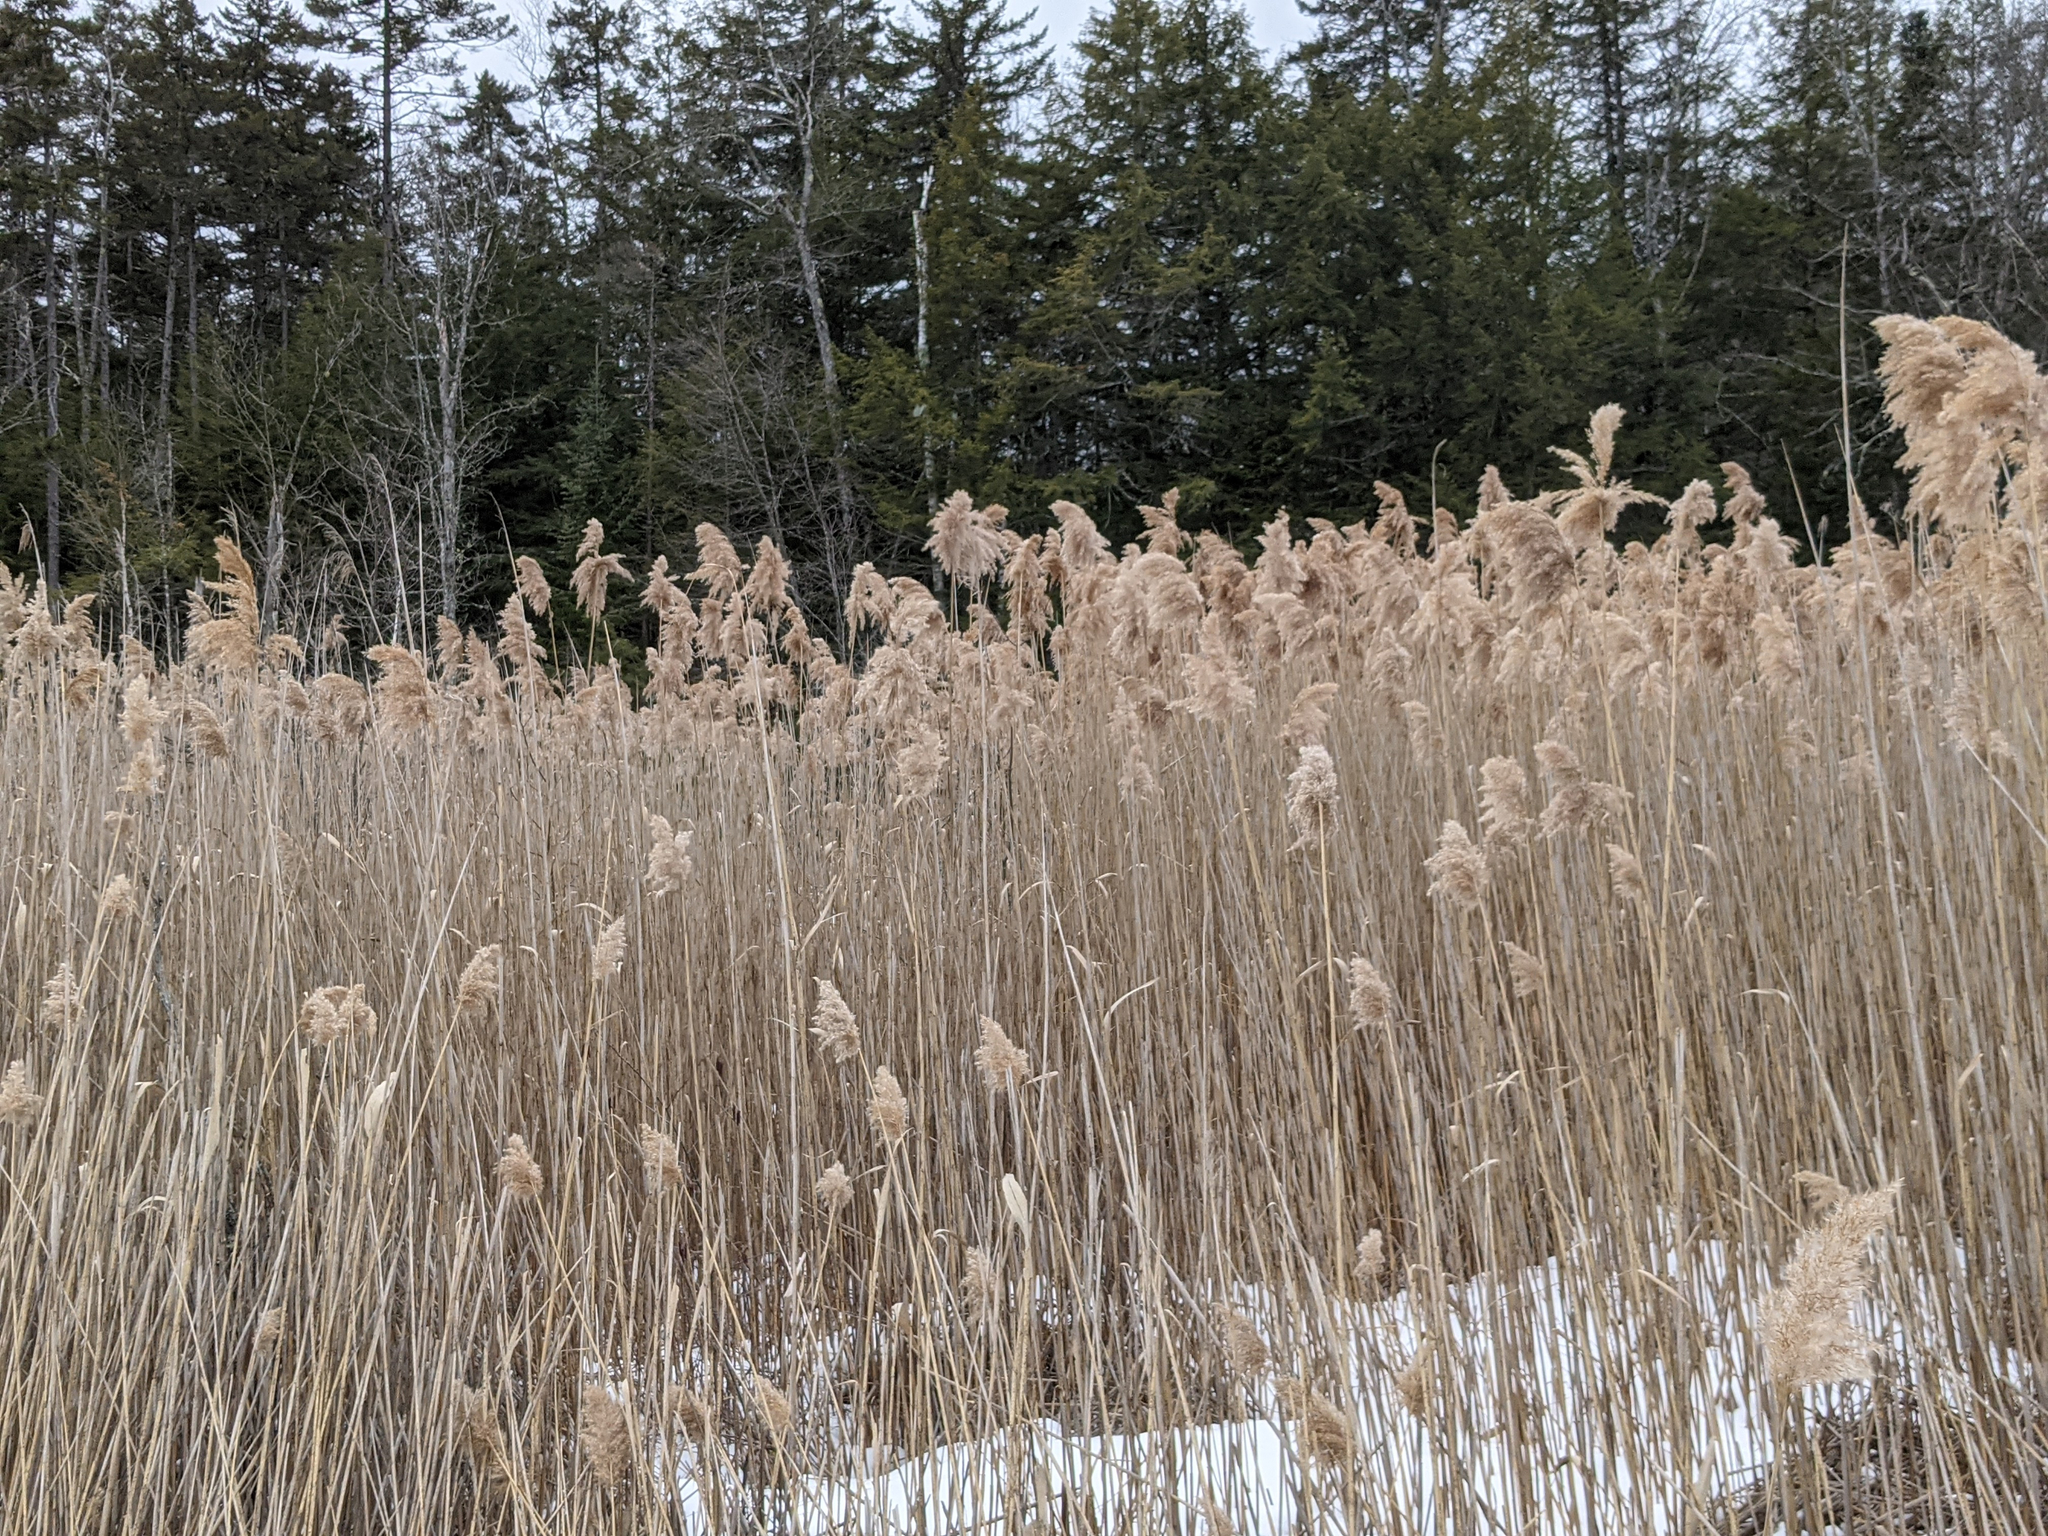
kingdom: Plantae
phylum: Tracheophyta
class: Liliopsida
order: Poales
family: Poaceae
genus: Phragmites
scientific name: Phragmites australis
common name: Common reed
